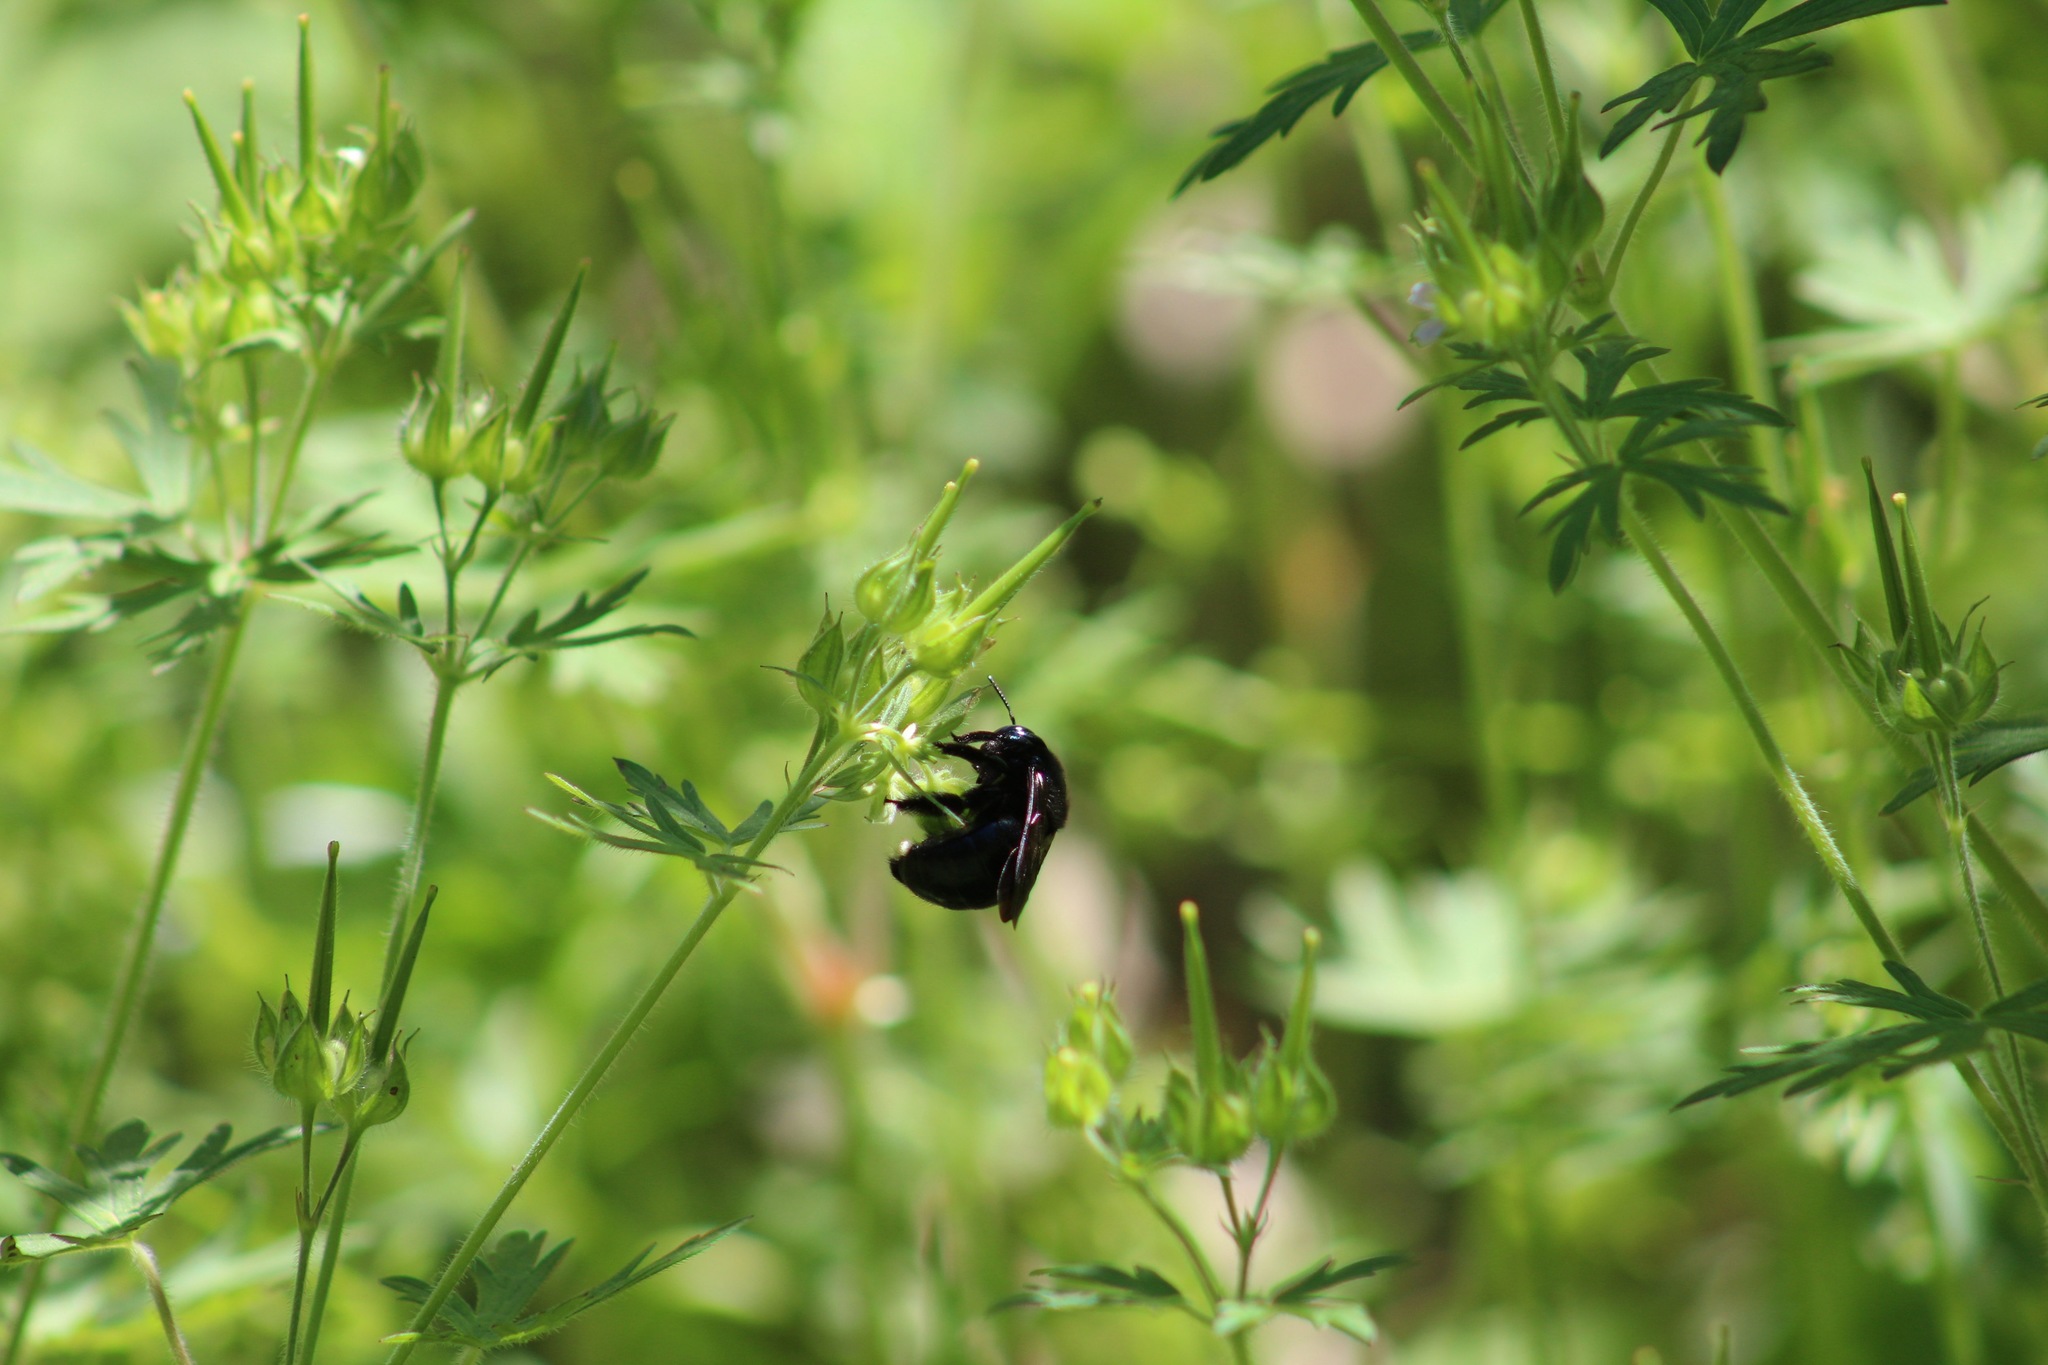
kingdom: Animalia
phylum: Arthropoda
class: Insecta
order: Hymenoptera
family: Apidae
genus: Xylocopa
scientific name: Xylocopa micans
